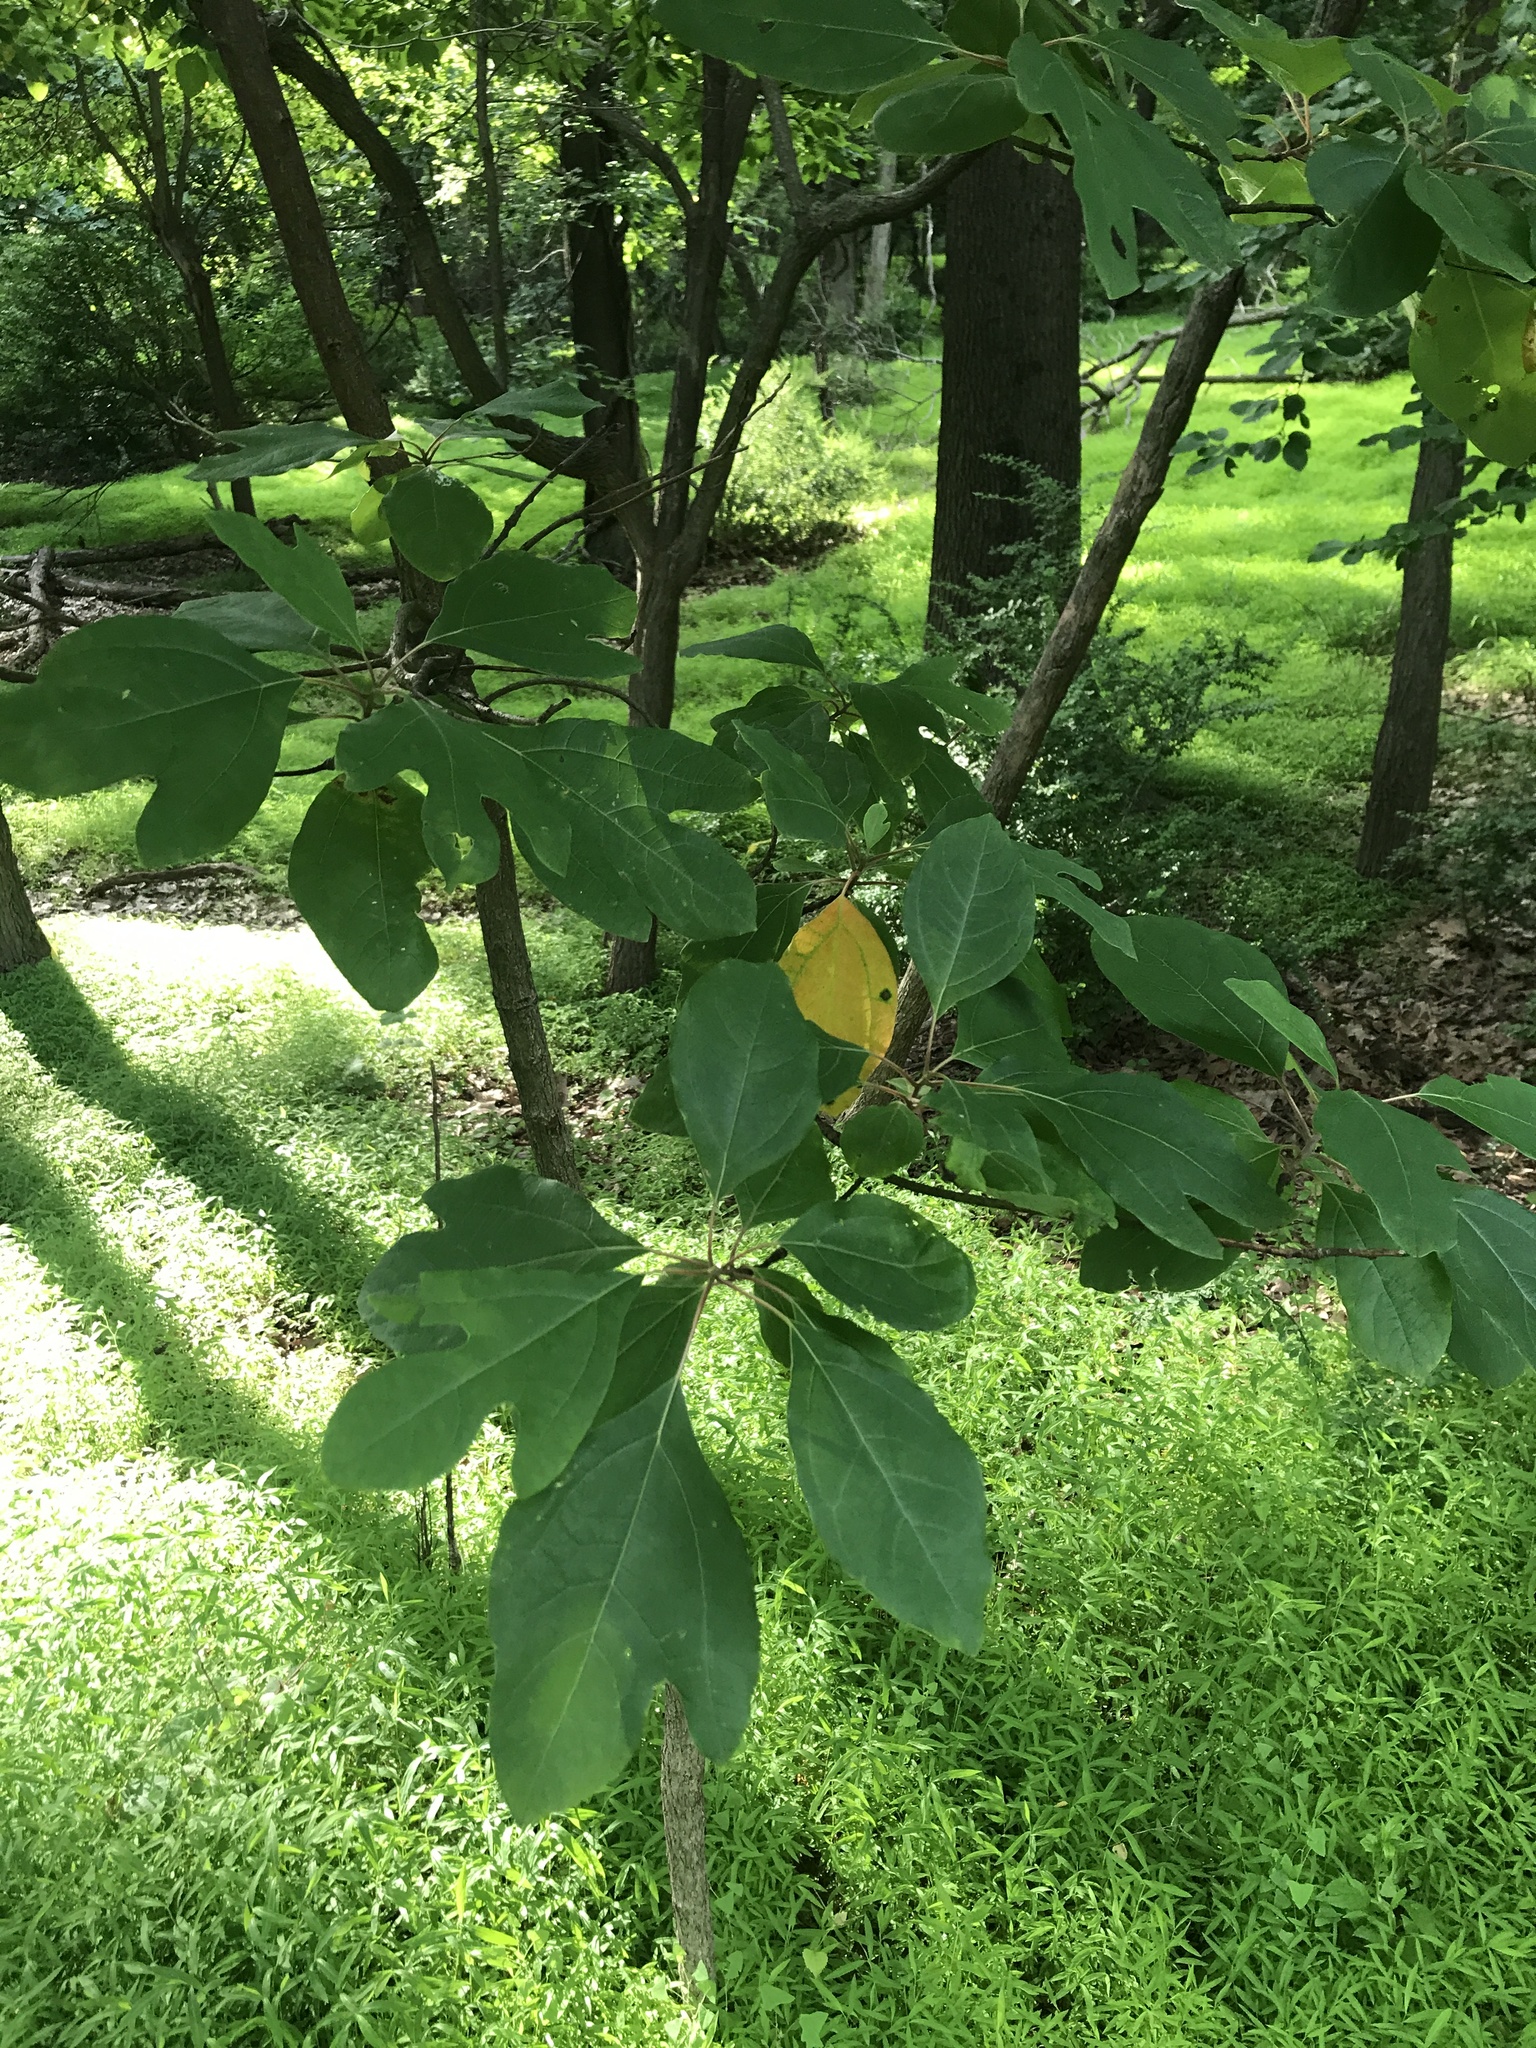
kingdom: Plantae
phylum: Tracheophyta
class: Magnoliopsida
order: Laurales
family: Lauraceae
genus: Sassafras
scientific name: Sassafras albidum
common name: Sassafras
